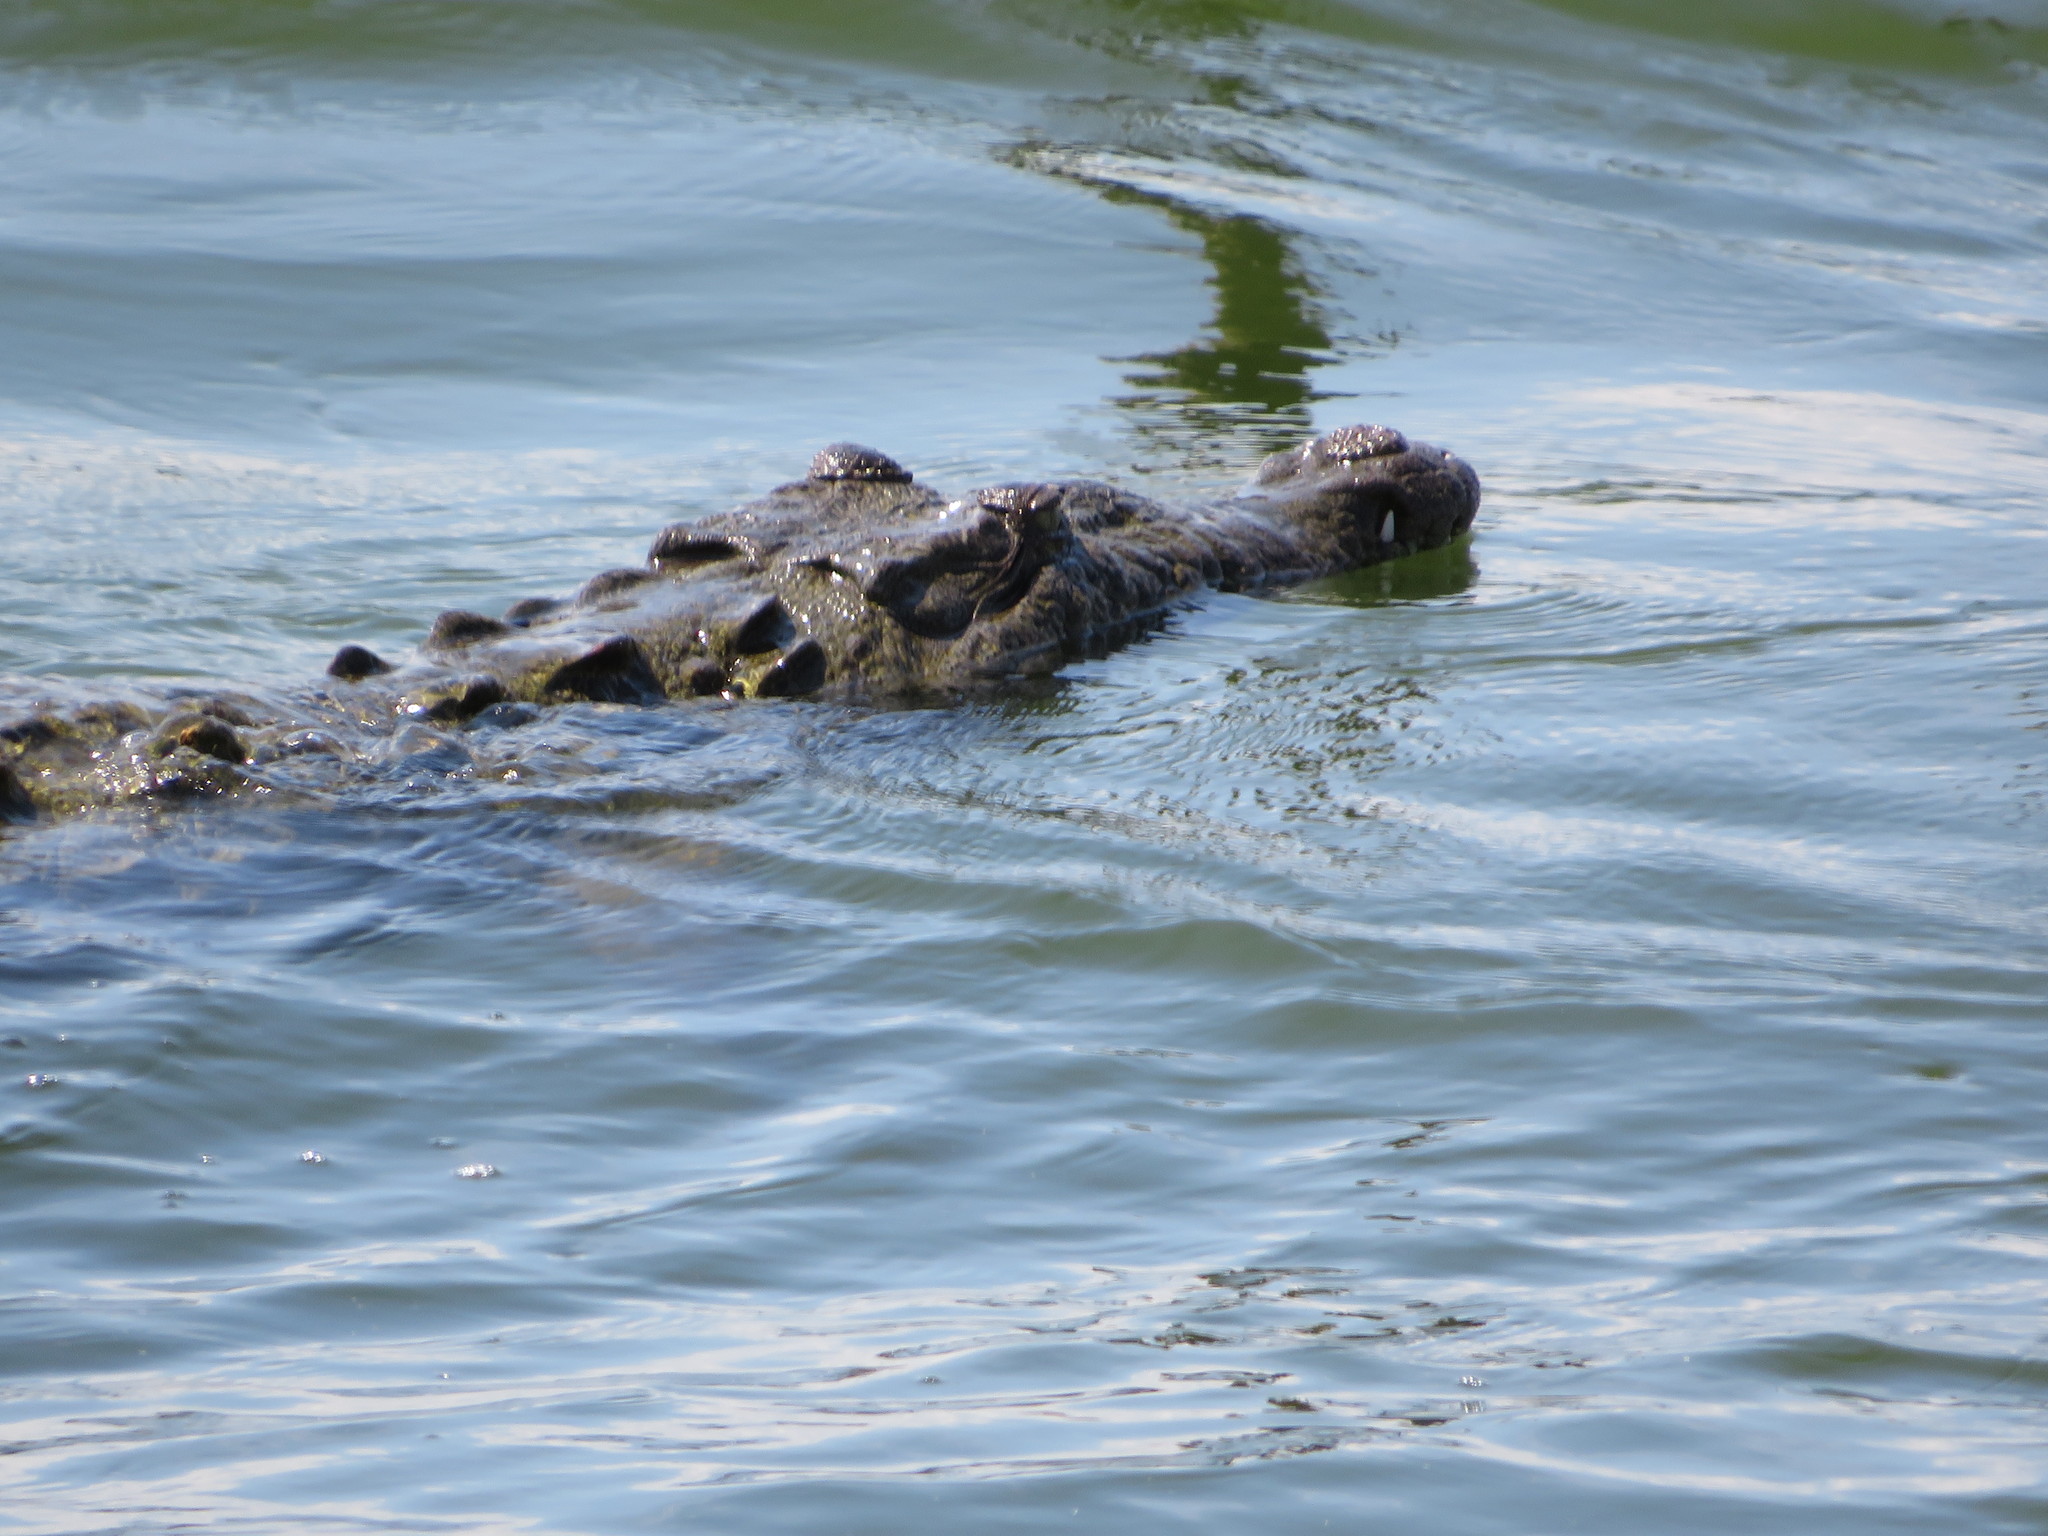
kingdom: Animalia
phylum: Chordata
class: Crocodylia
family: Crocodylidae
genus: Crocodylus
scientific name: Crocodylus acutus
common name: American crocodile
